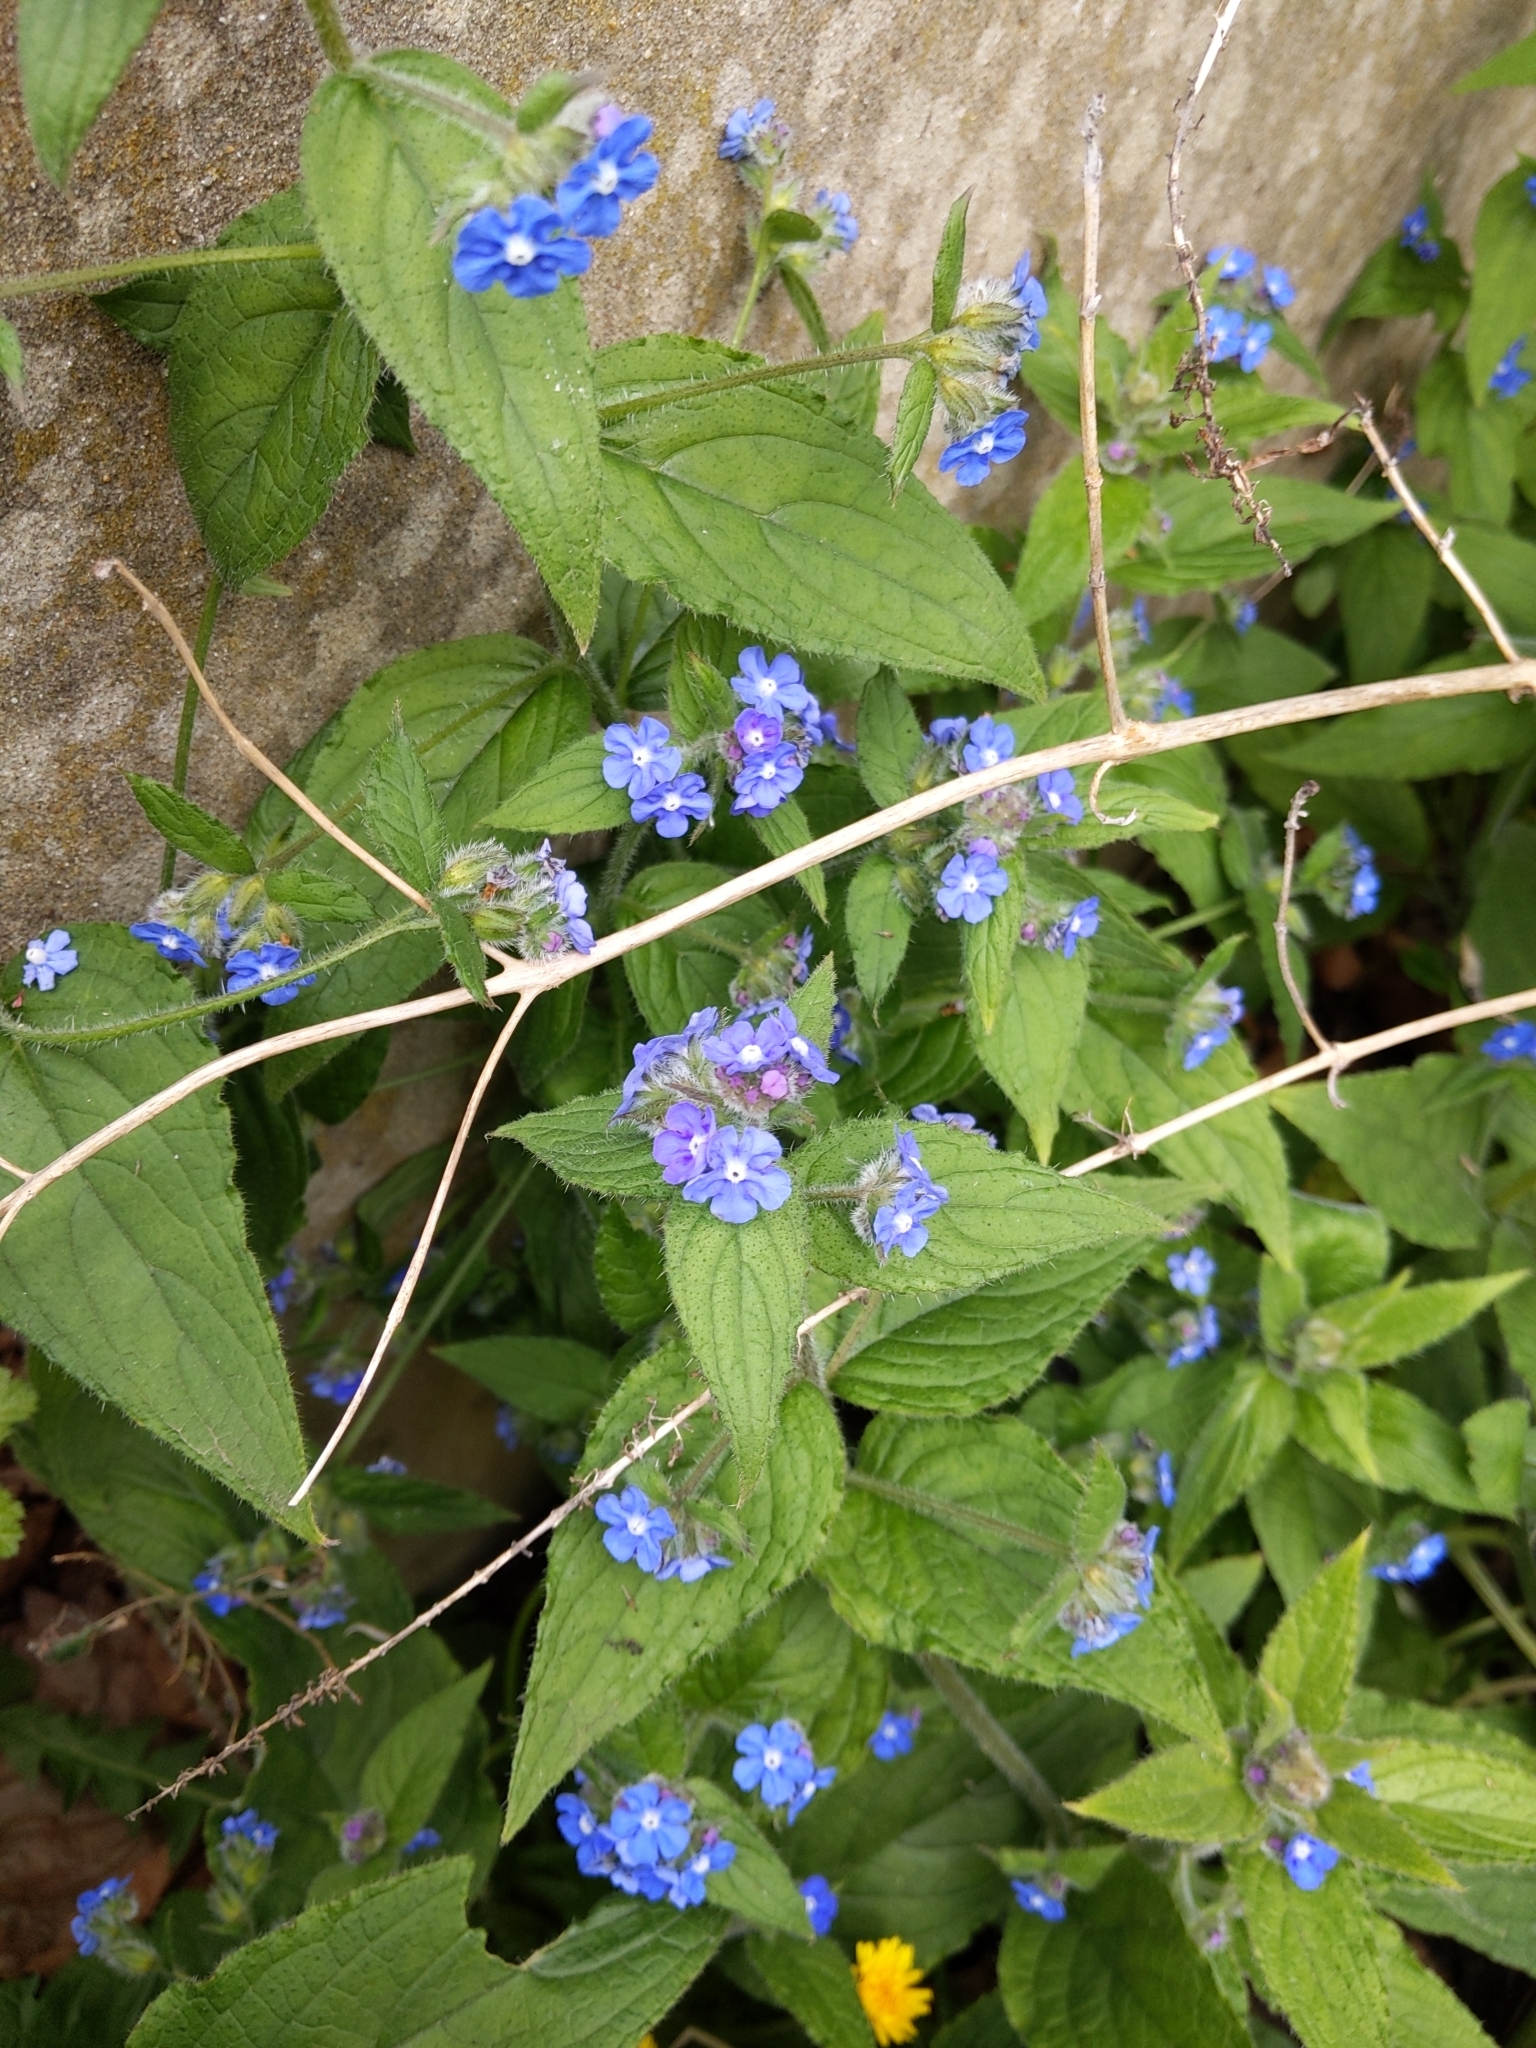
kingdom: Plantae
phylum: Tracheophyta
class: Magnoliopsida
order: Boraginales
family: Boraginaceae
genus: Pentaglottis
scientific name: Pentaglottis sempervirens
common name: Green alkanet
